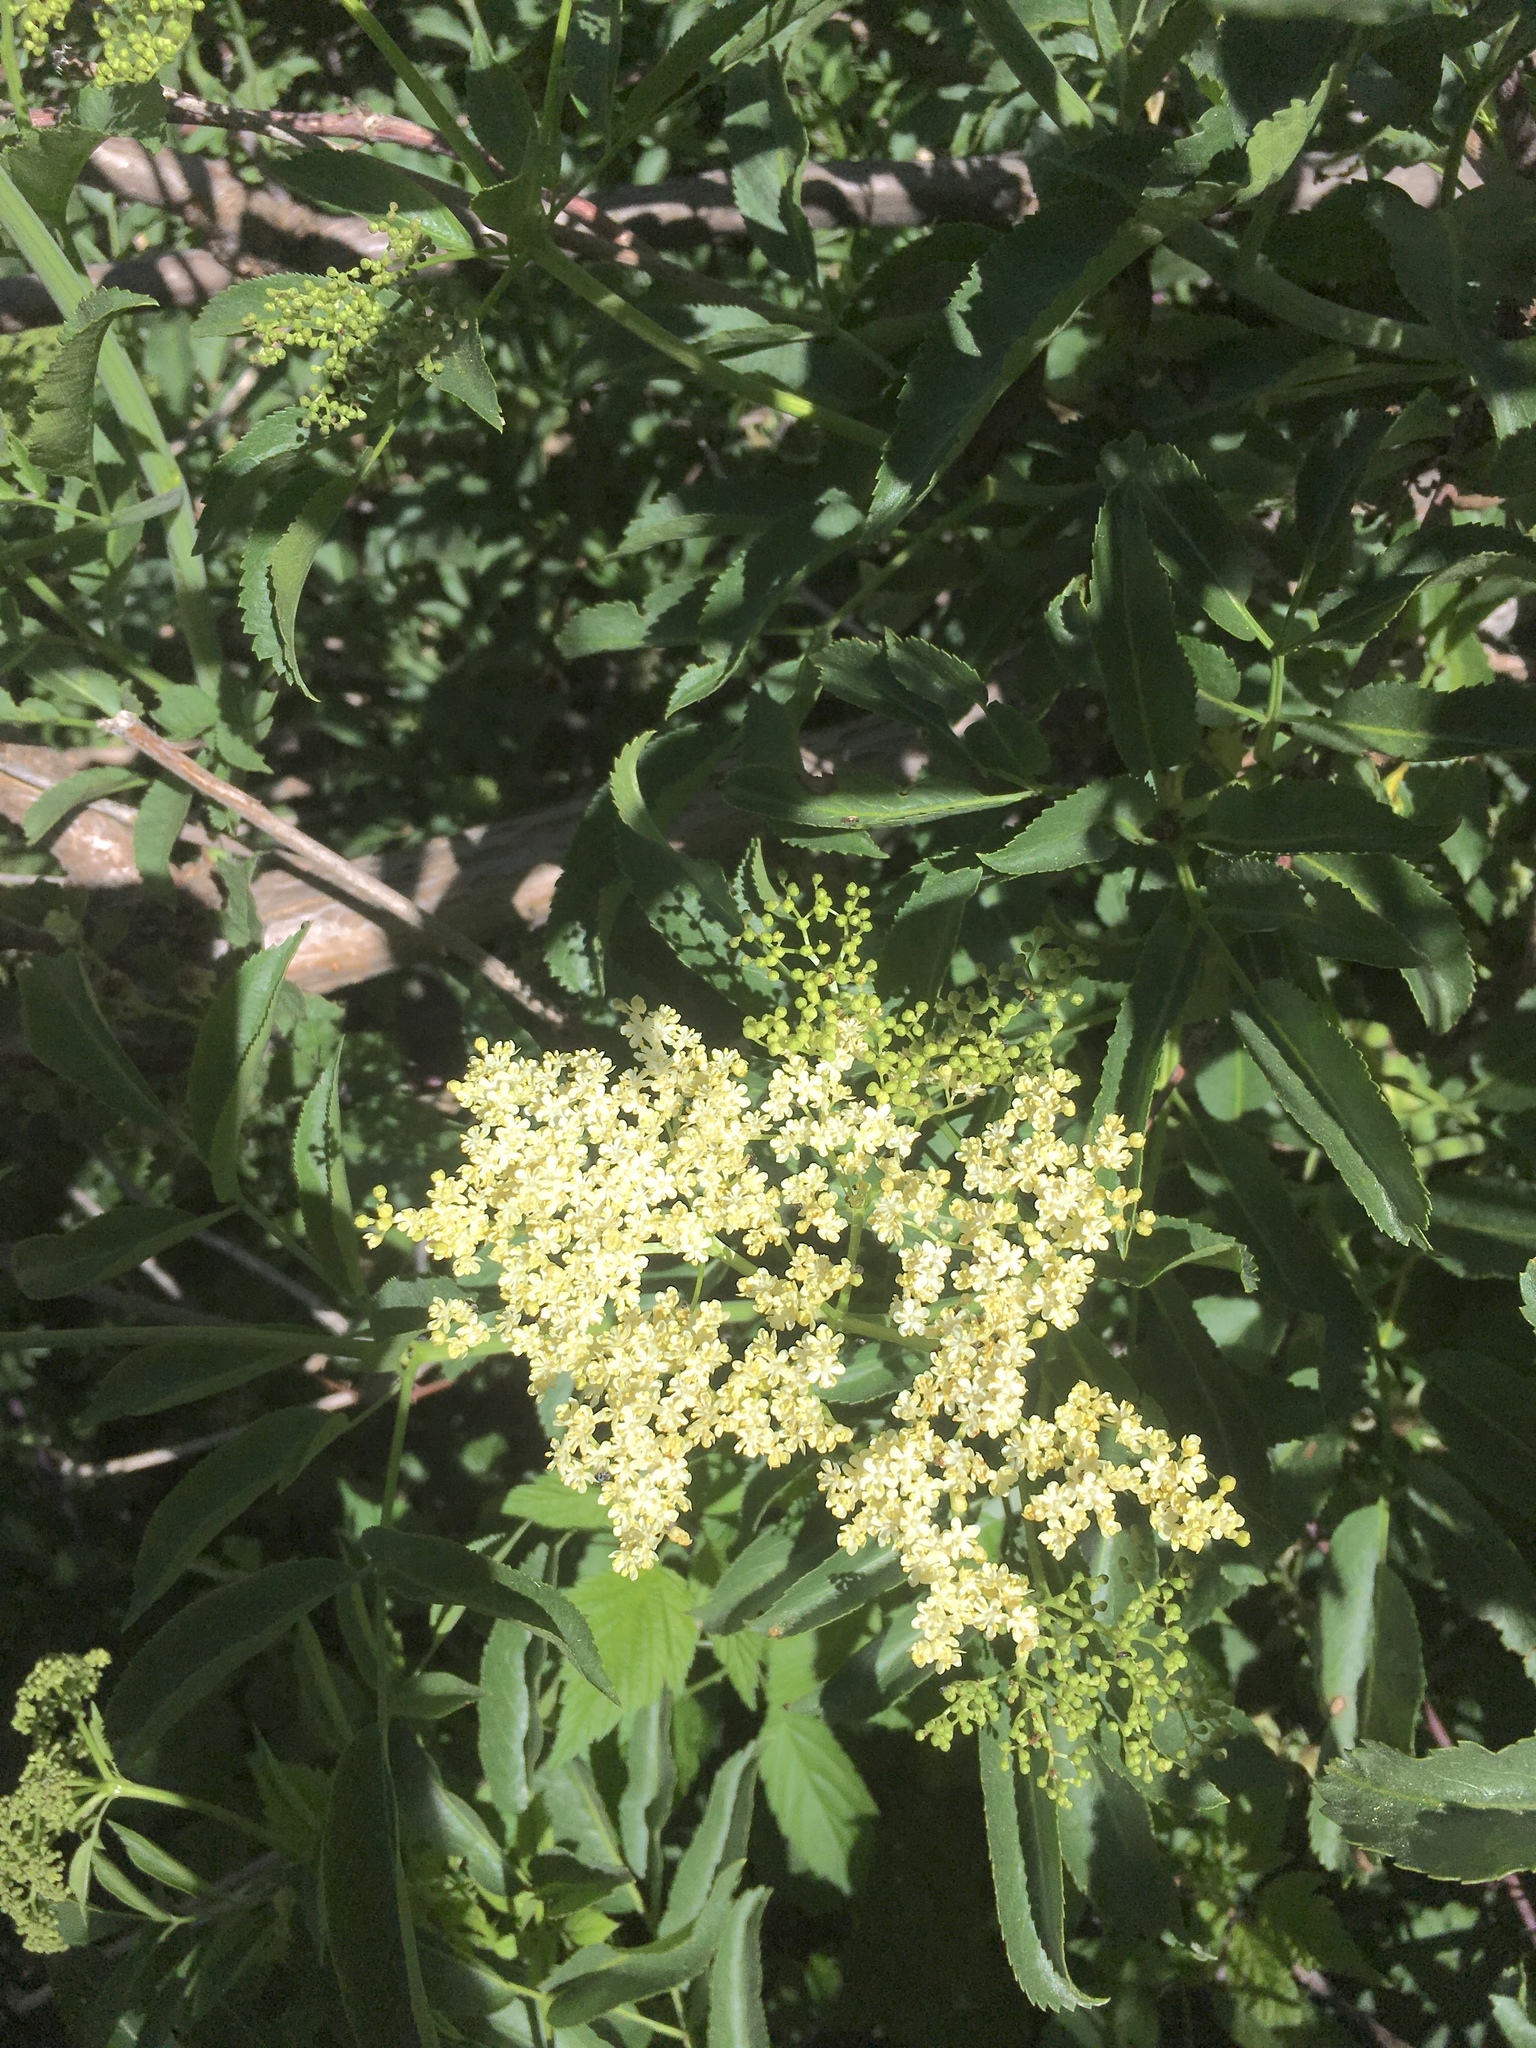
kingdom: Plantae
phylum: Tracheophyta
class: Magnoliopsida
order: Dipsacales
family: Viburnaceae
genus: Sambucus
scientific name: Sambucus cerulea
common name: Blue elder
